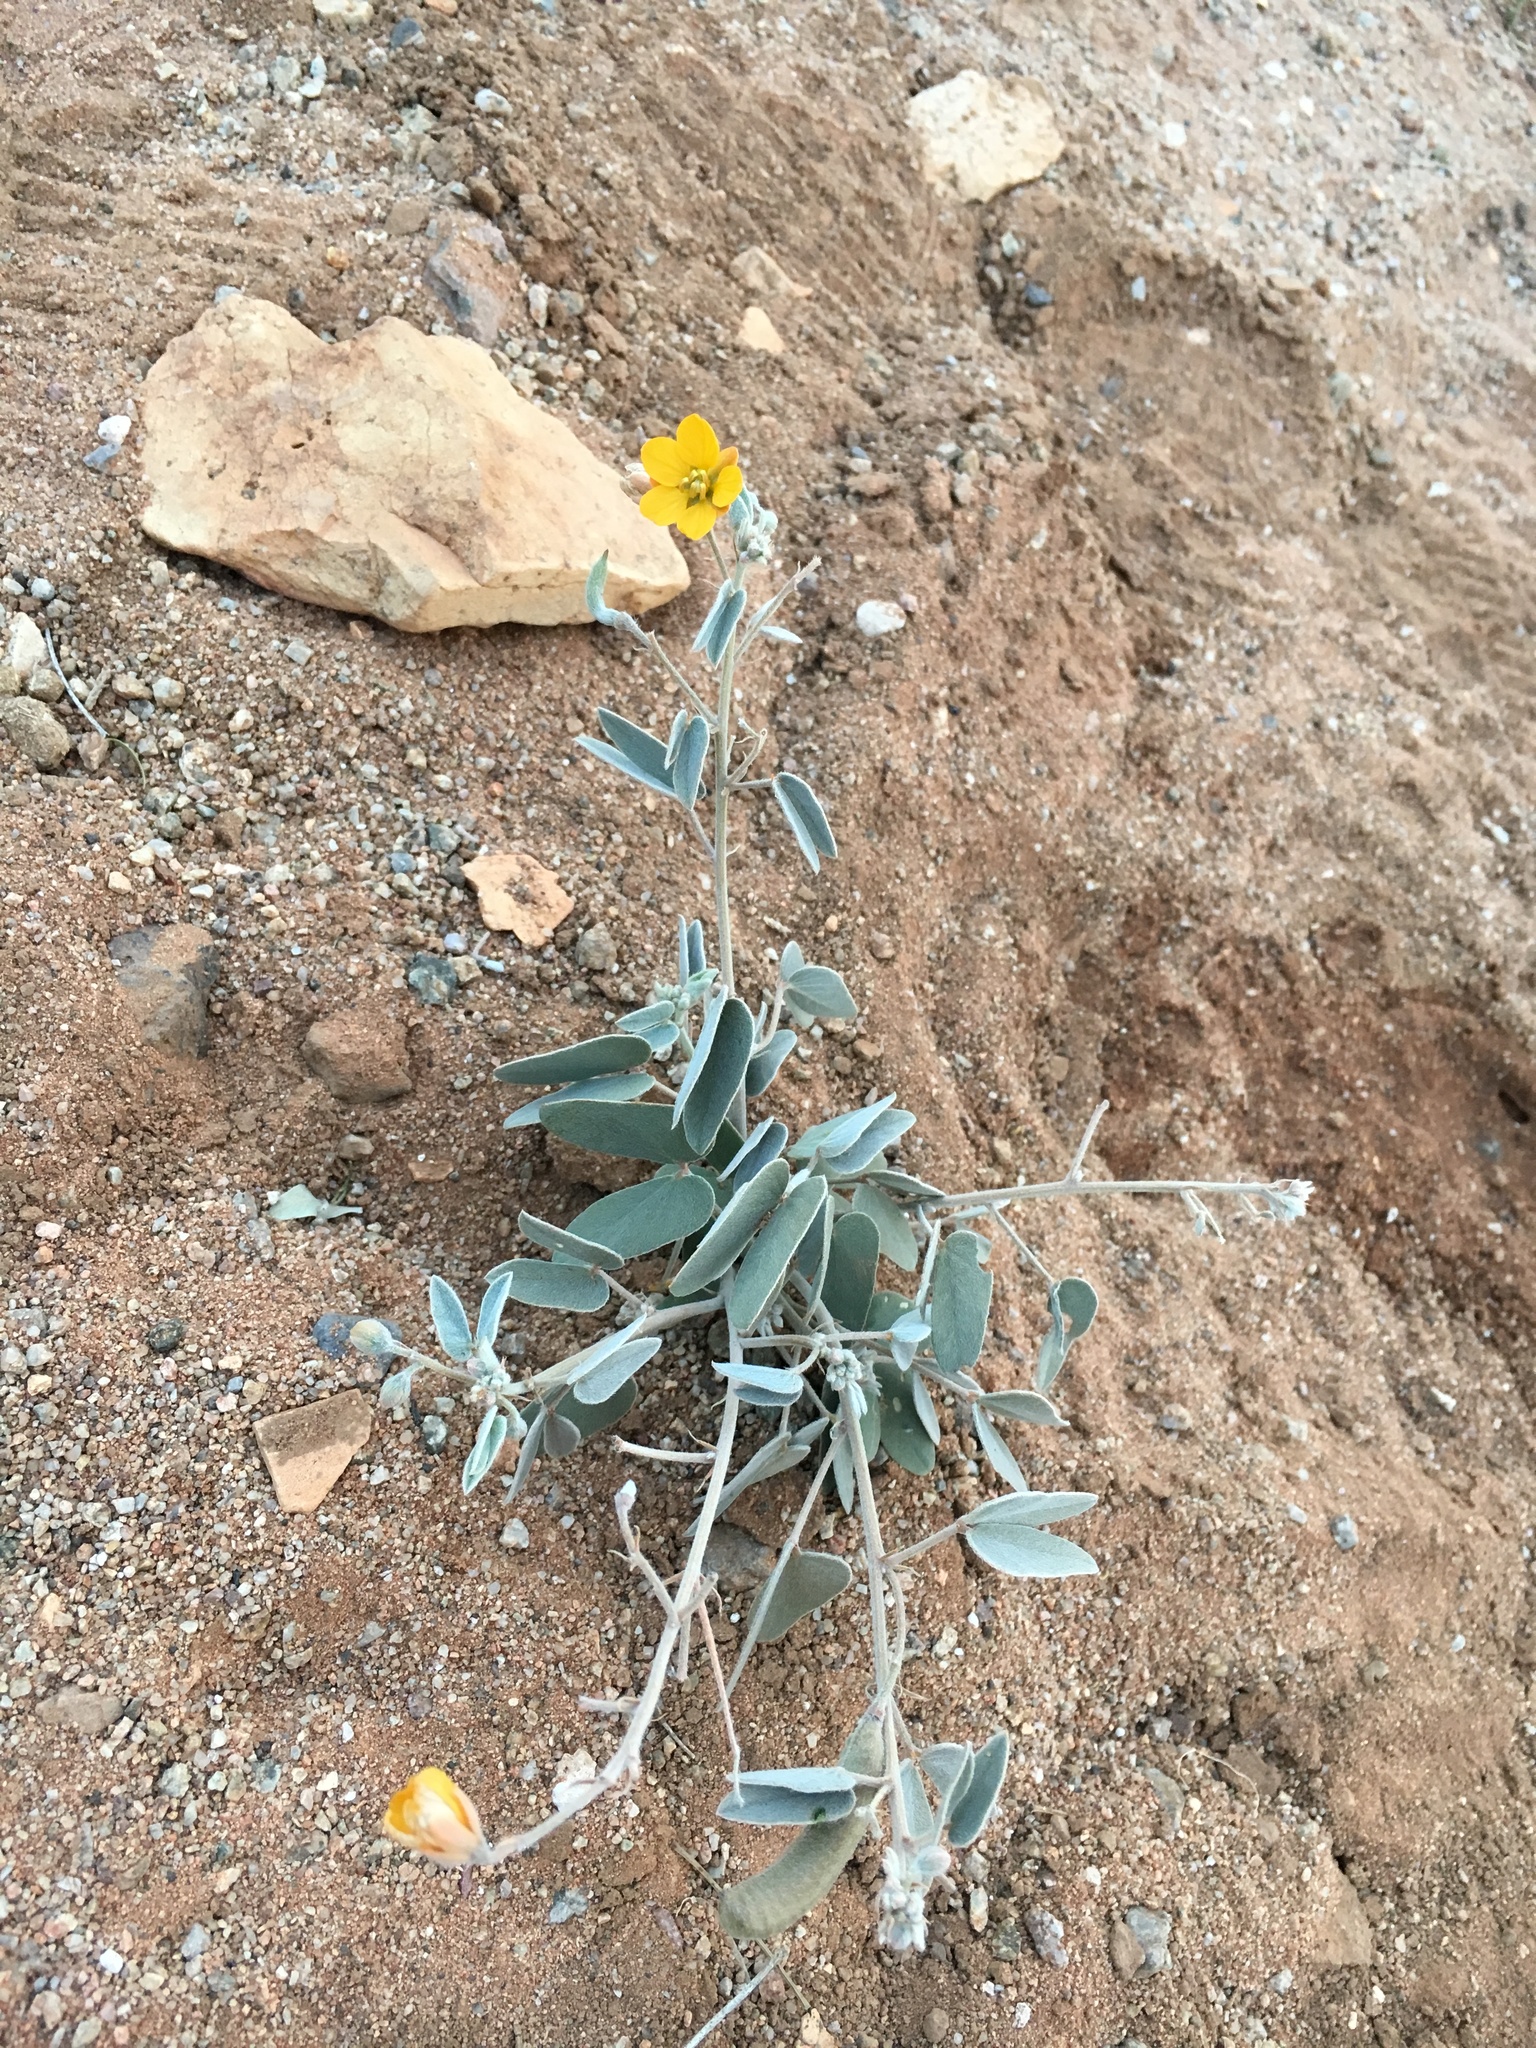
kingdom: Plantae
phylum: Tracheophyta
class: Magnoliopsida
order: Fabales
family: Fabaceae
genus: Senna
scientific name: Senna bauhinioides
